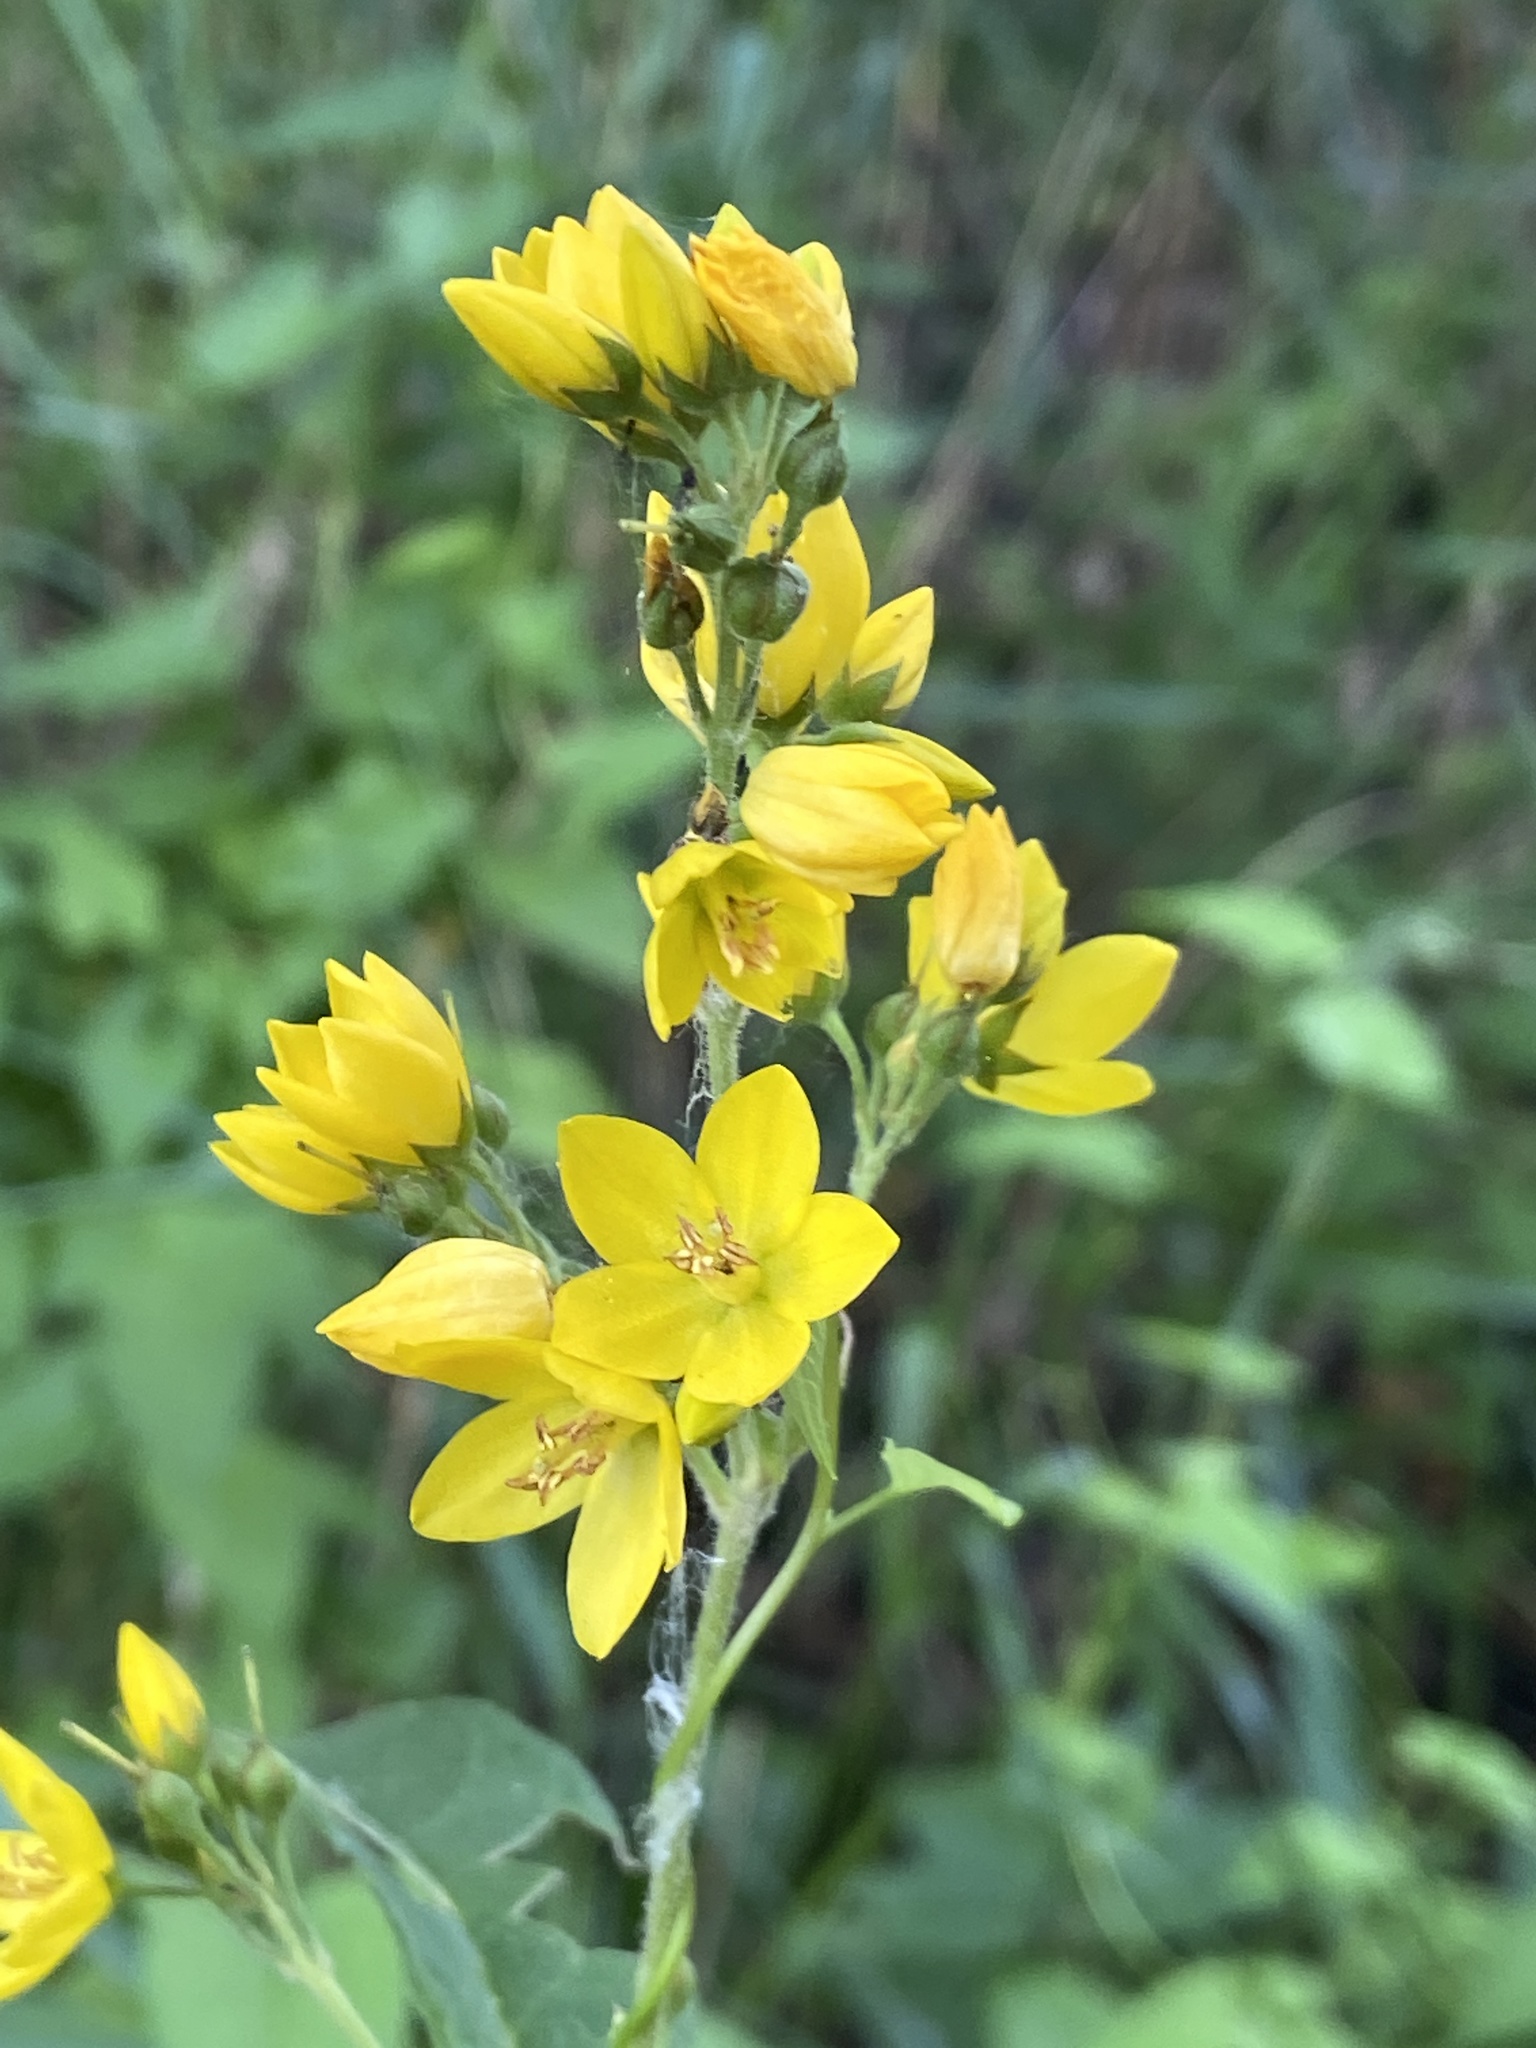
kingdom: Plantae
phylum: Tracheophyta
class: Magnoliopsida
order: Ericales
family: Primulaceae
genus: Lysimachia
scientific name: Lysimachia vulgaris
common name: Yellow loosestrife
